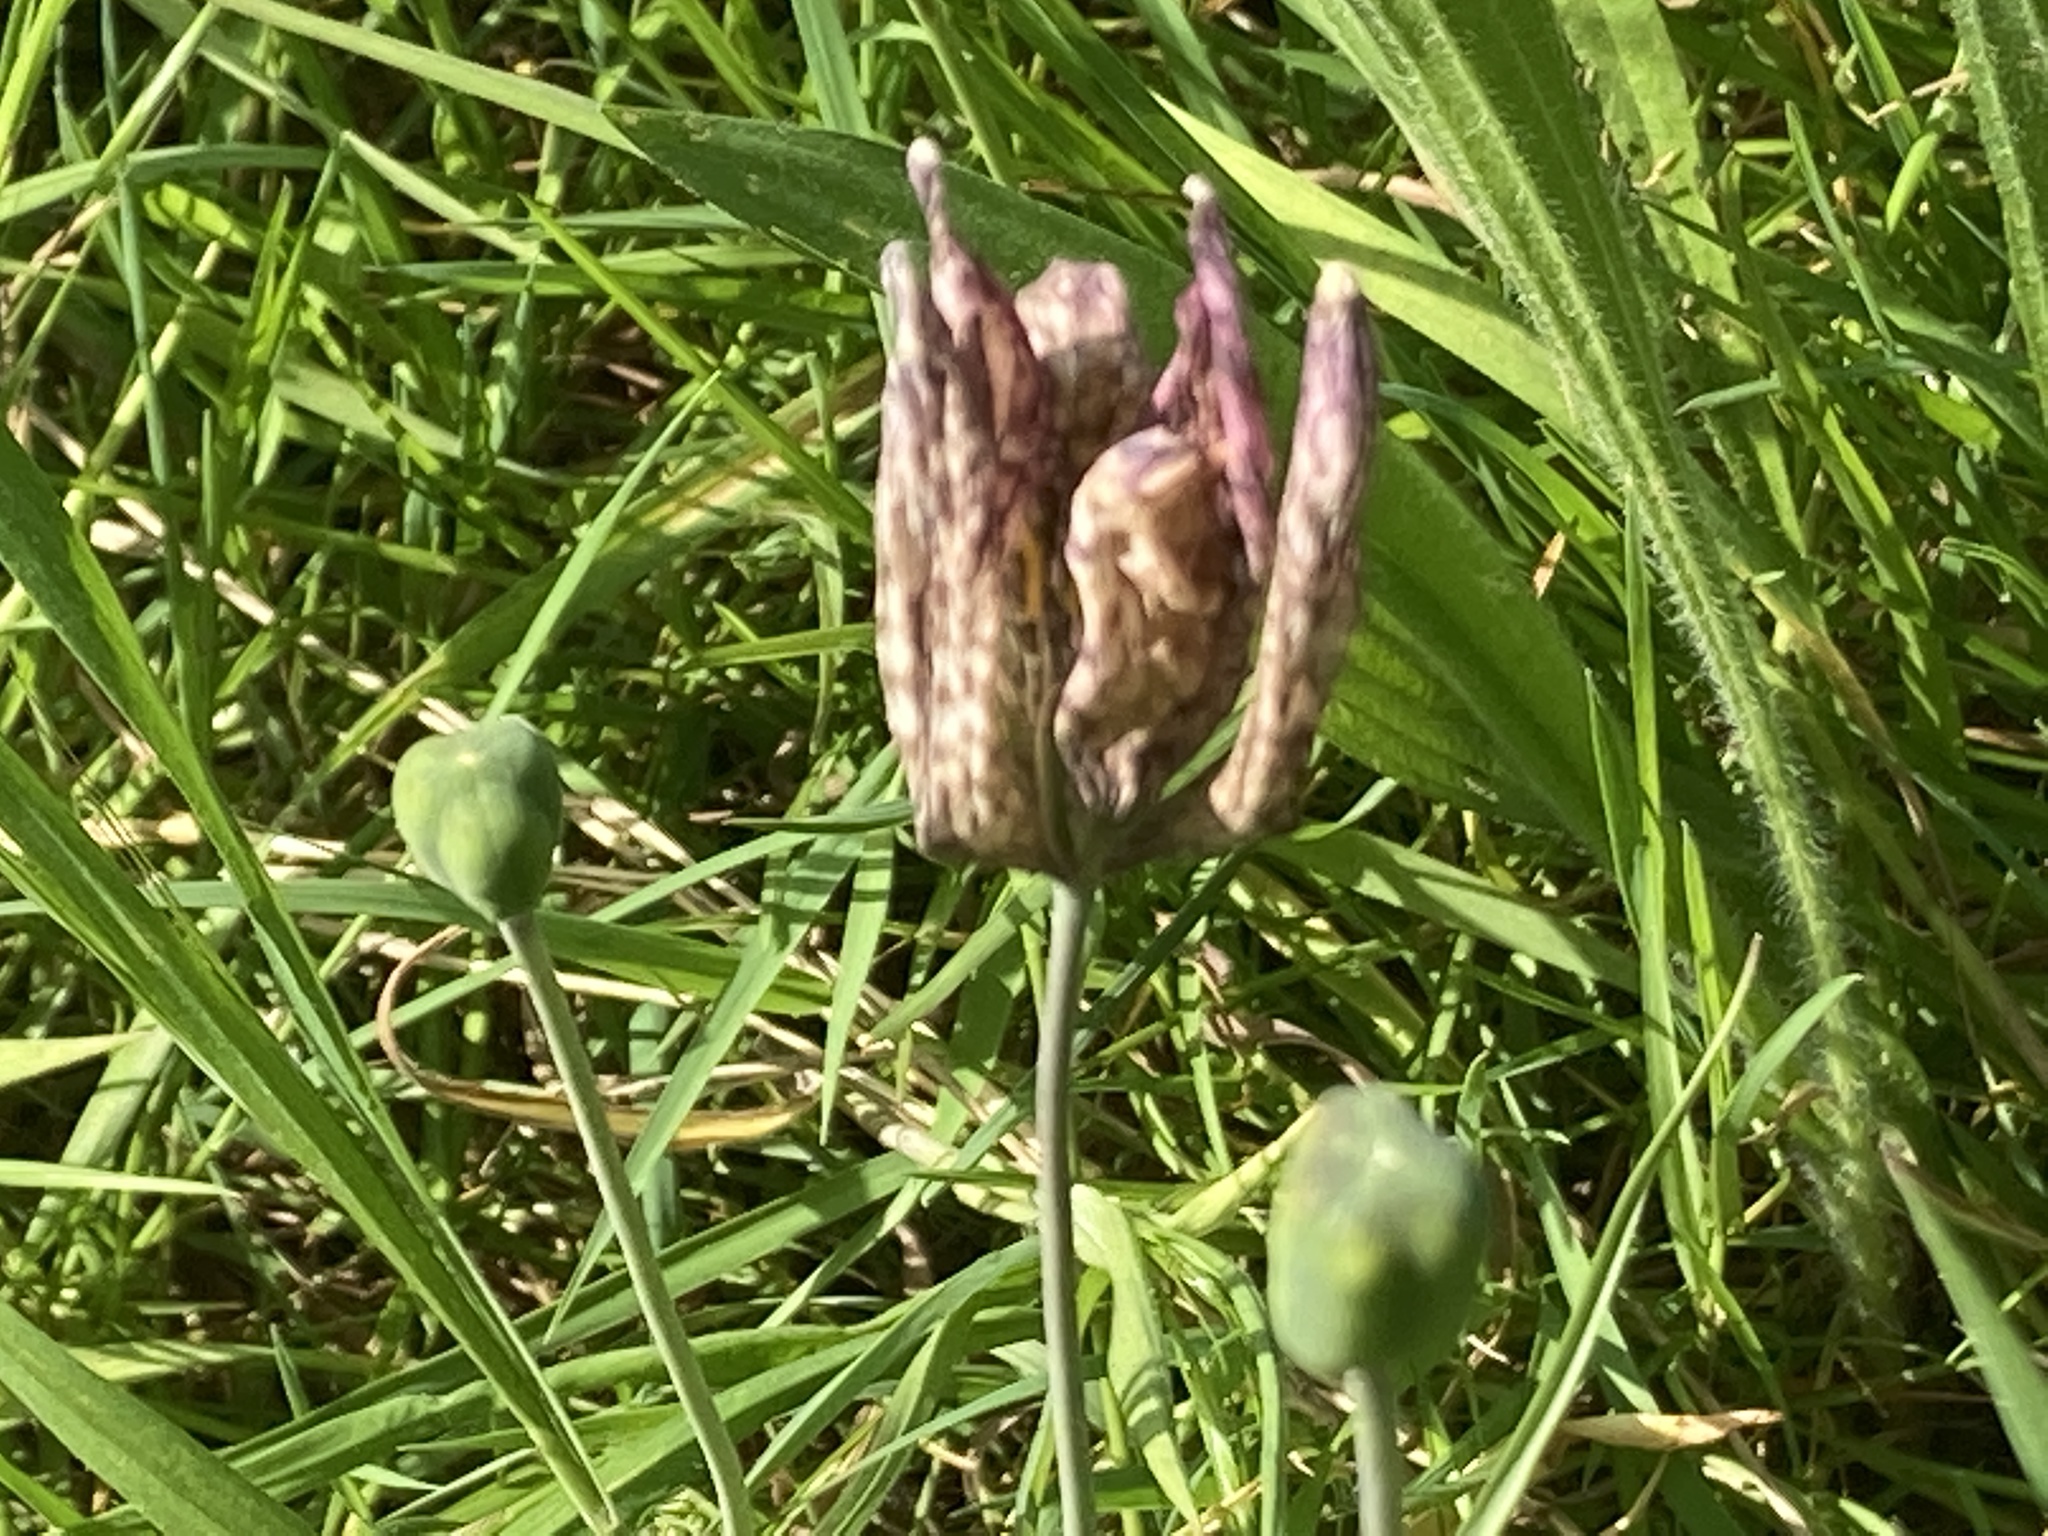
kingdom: Plantae
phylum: Tracheophyta
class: Liliopsida
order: Liliales
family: Liliaceae
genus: Fritillaria
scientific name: Fritillaria meleagris
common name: Fritillary
